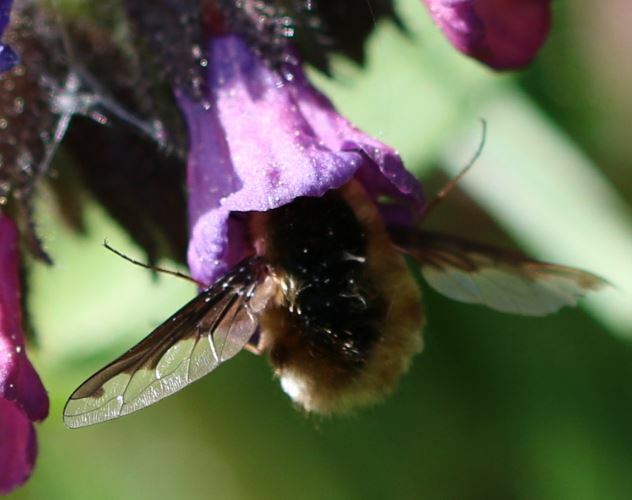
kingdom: Animalia
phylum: Arthropoda
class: Insecta
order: Diptera
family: Bombyliidae
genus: Bombylius
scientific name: Bombylius major
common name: Bee fly
